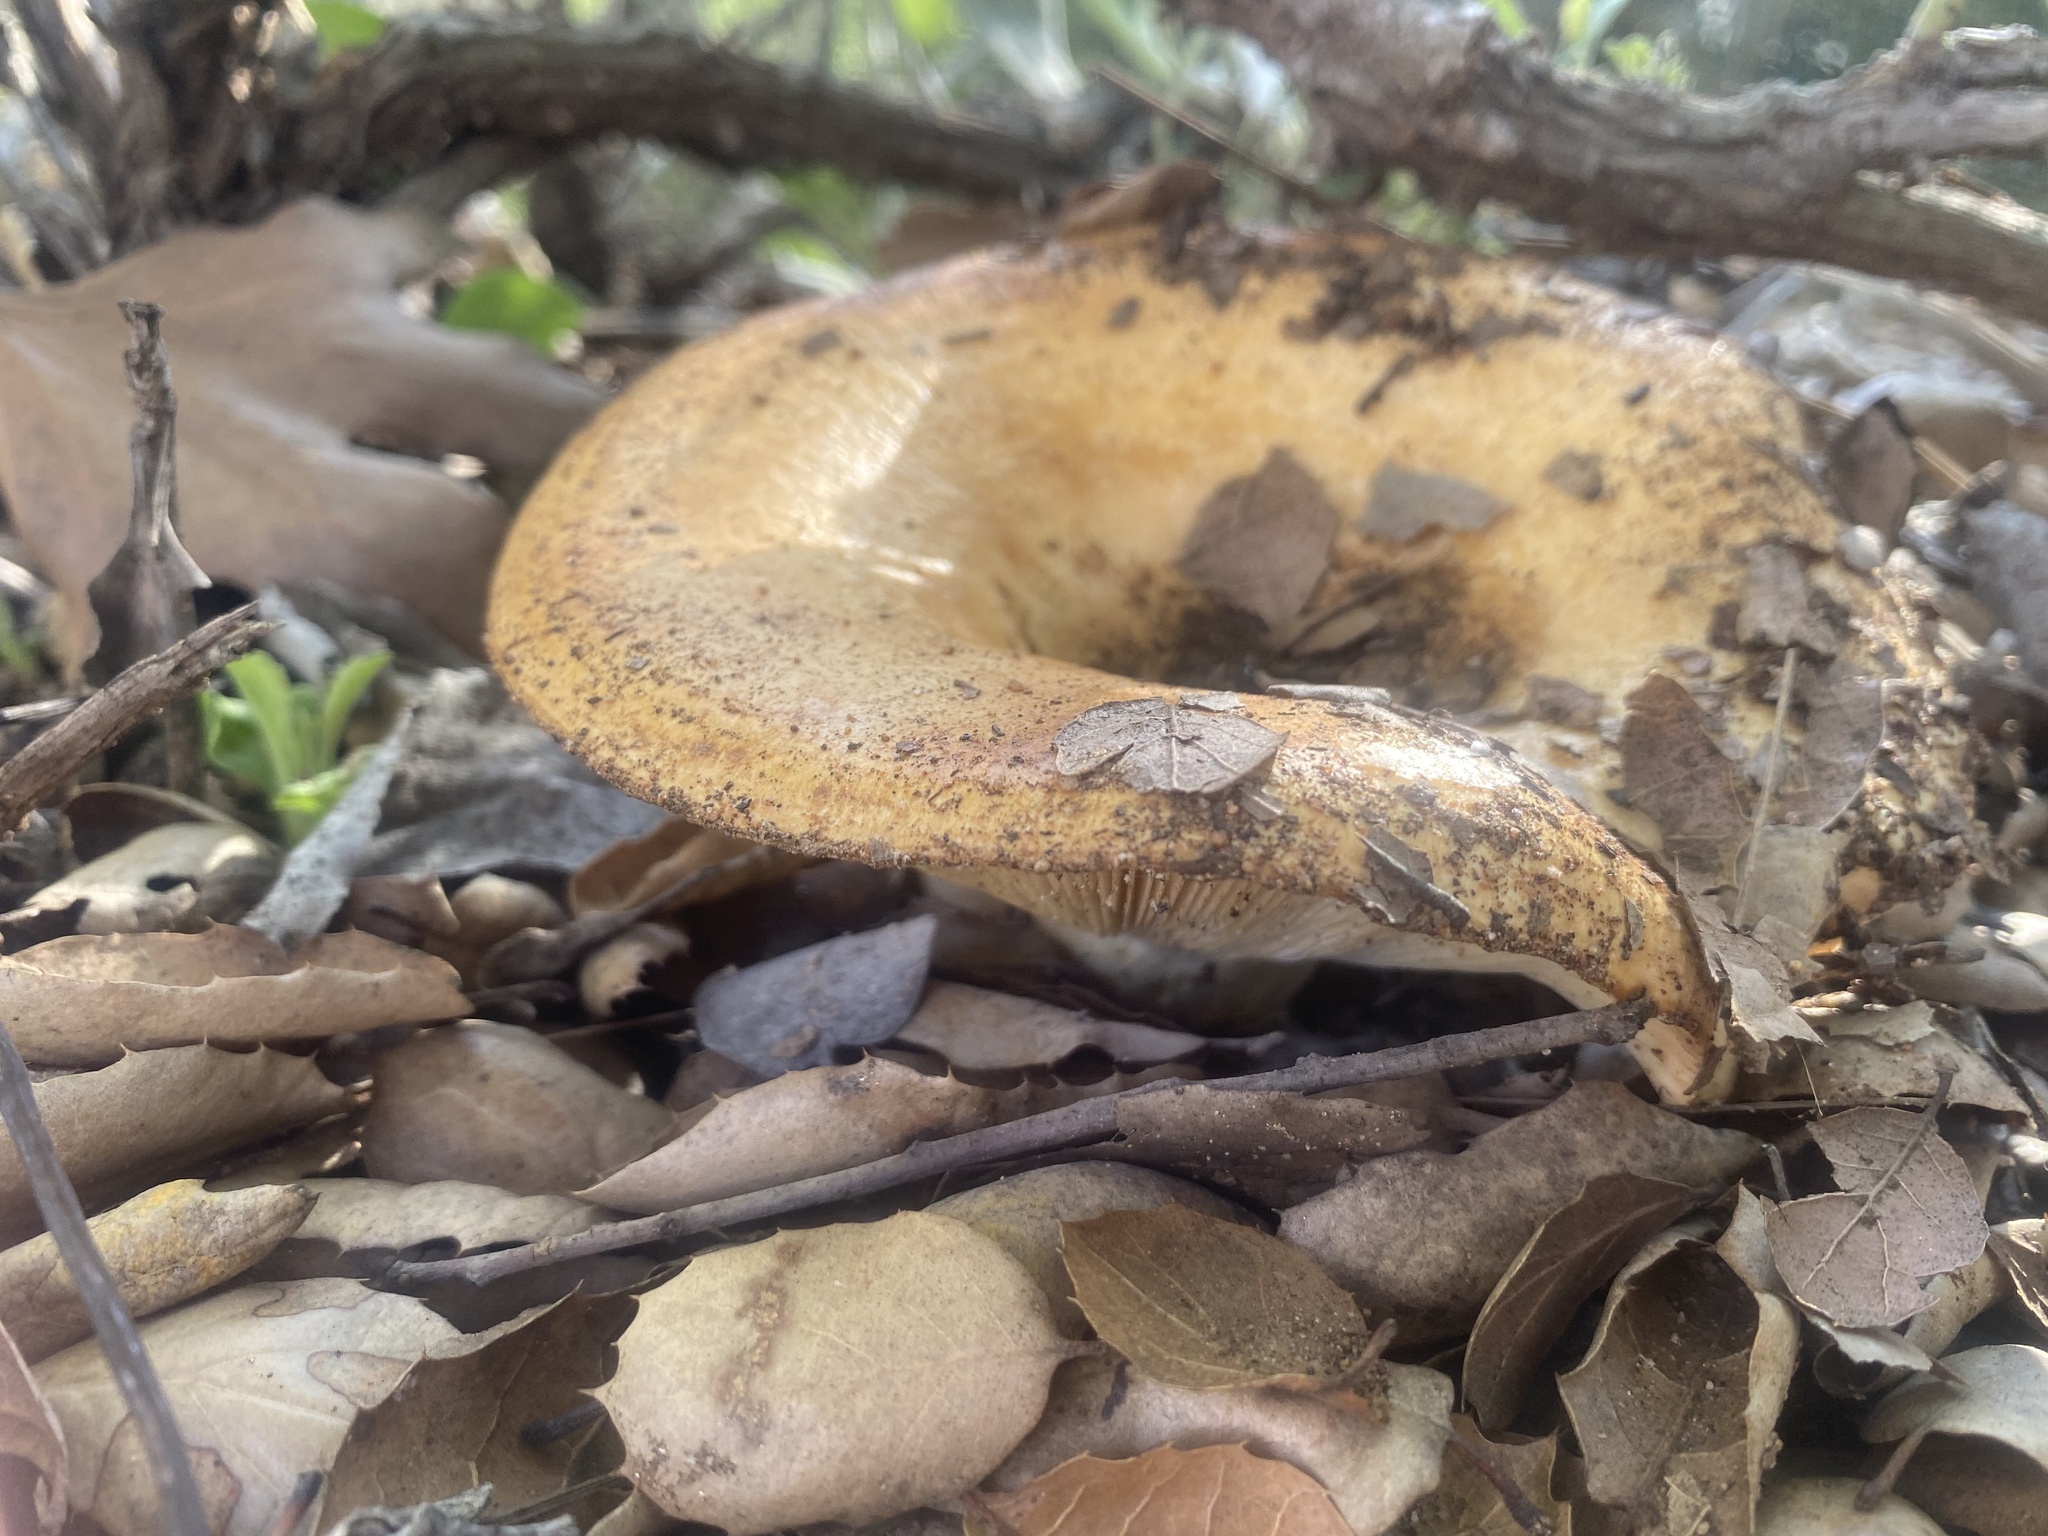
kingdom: Fungi
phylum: Basidiomycota
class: Agaricomycetes
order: Russulales
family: Russulaceae
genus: Lactarius
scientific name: Lactarius alnicola
